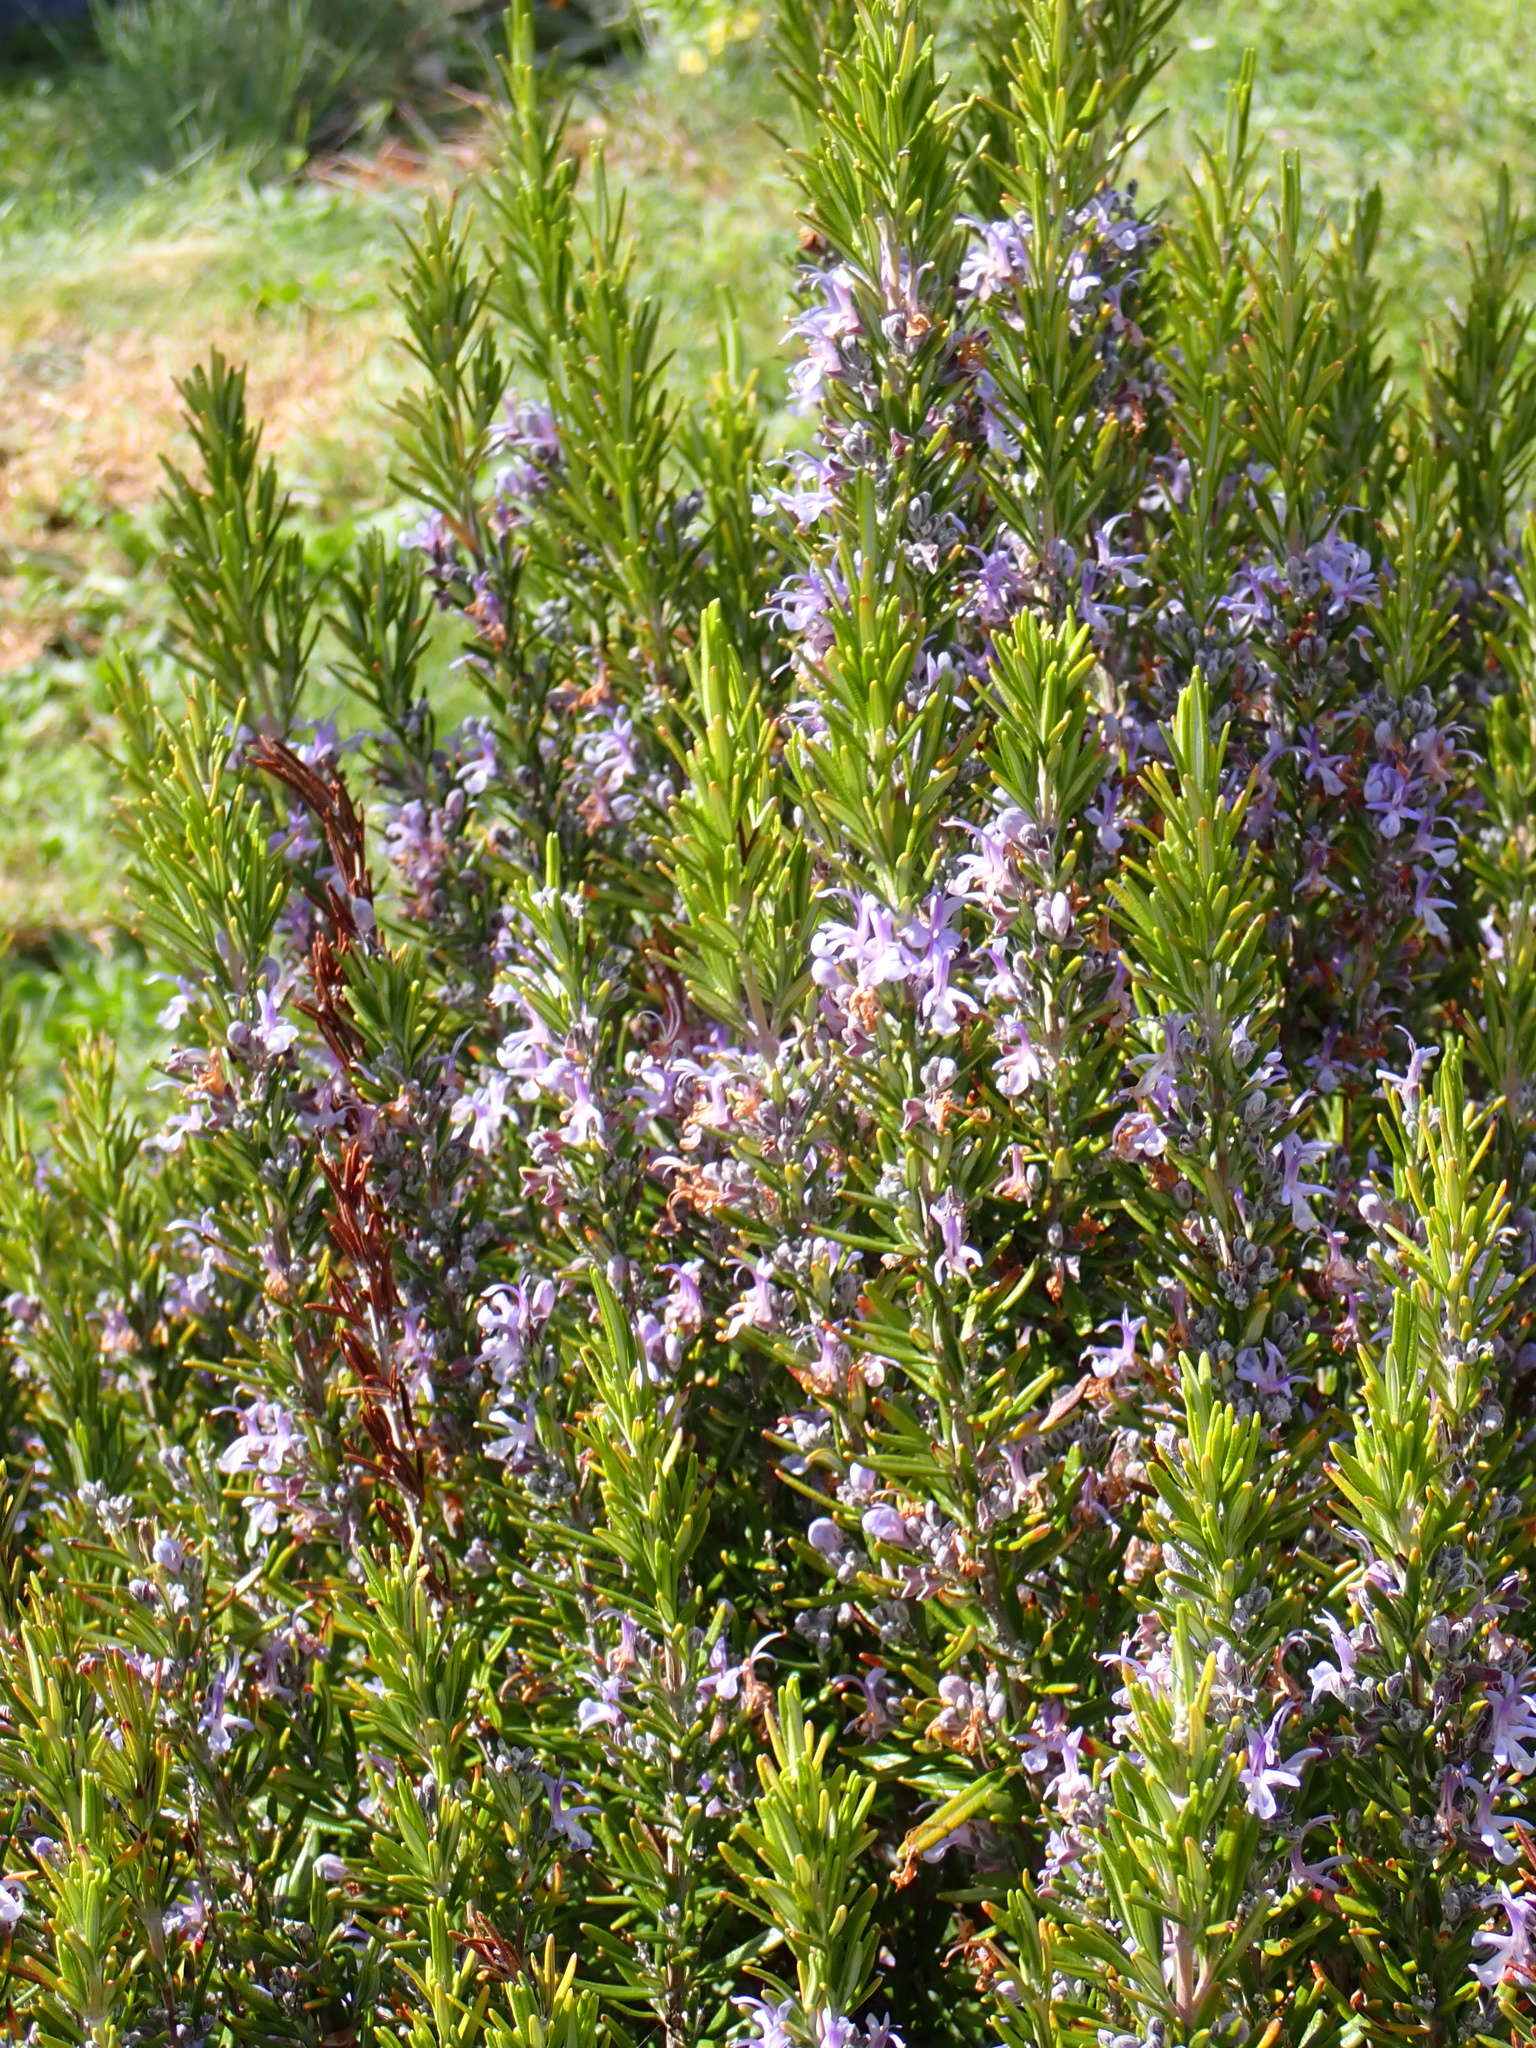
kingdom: Plantae
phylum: Tracheophyta
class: Magnoliopsida
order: Lamiales
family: Lamiaceae
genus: Salvia
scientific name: Salvia rosmarinus
